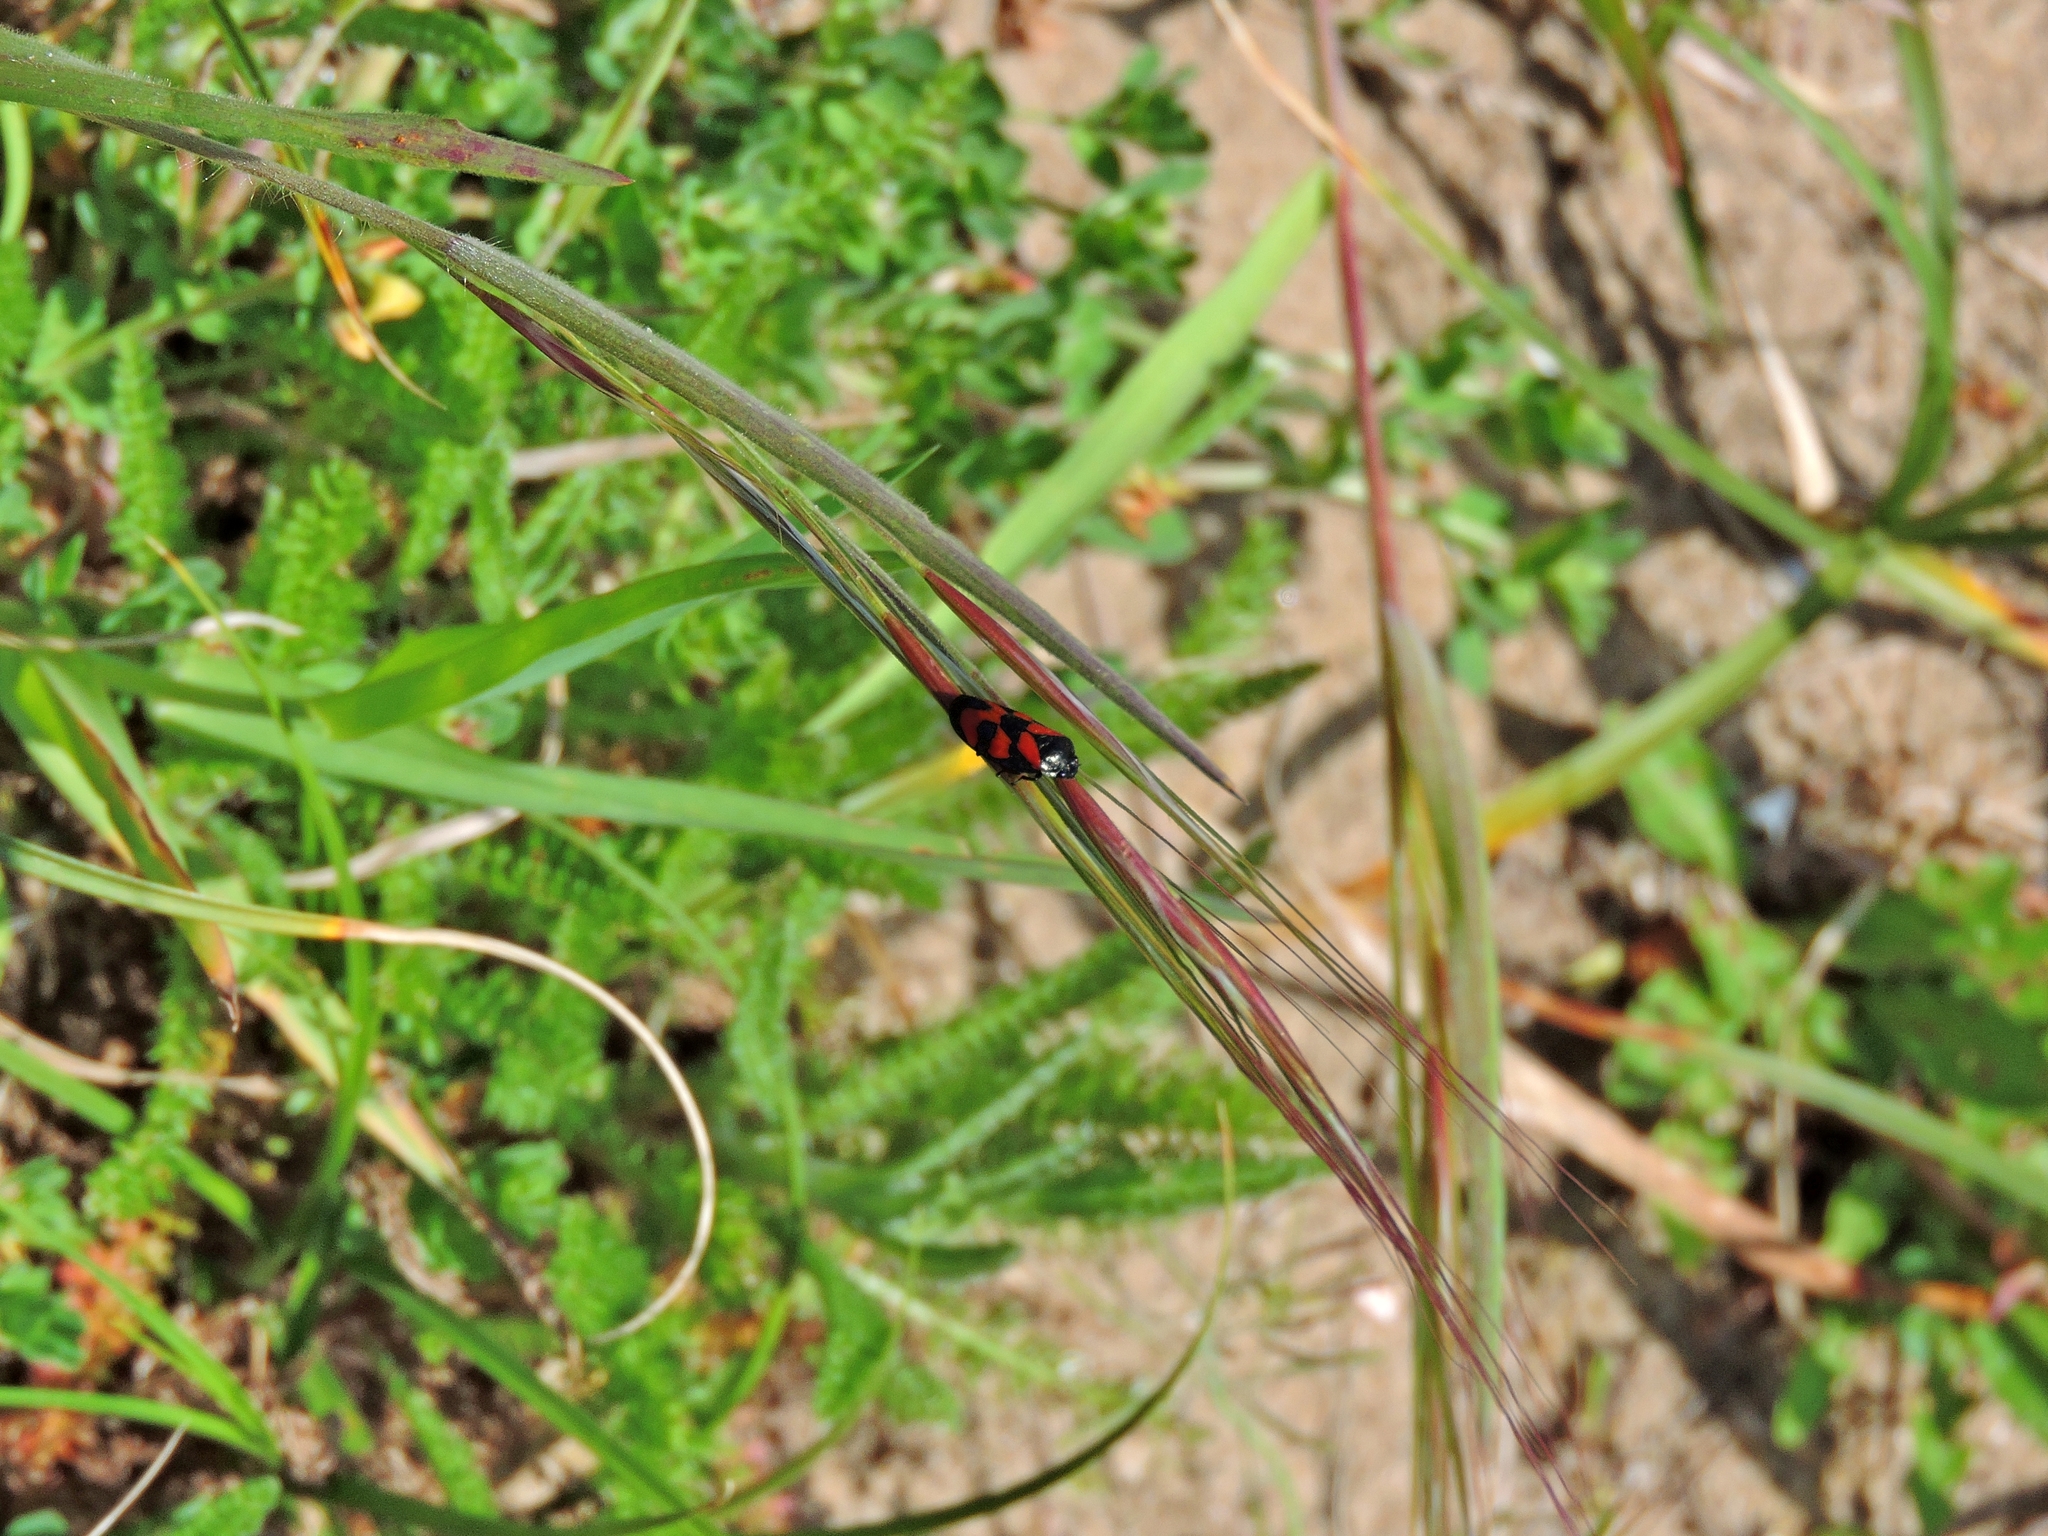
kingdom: Animalia
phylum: Arthropoda
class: Insecta
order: Hemiptera
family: Cercopidae
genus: Cercopis
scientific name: Cercopis vulnerata
